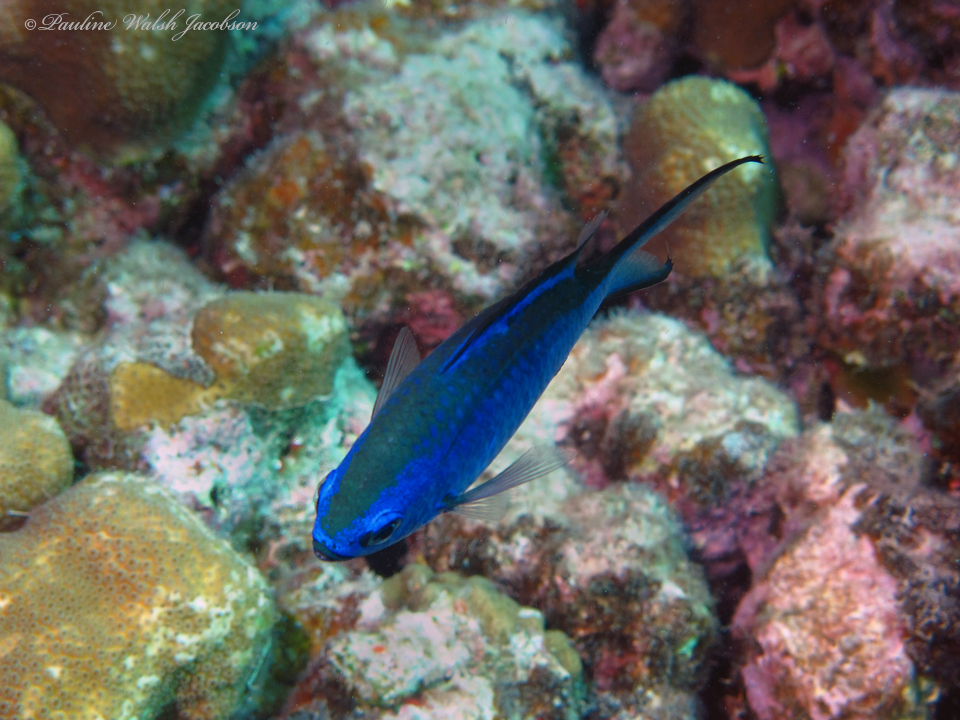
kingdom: Animalia
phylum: Chordata
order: Perciformes
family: Pomacentridae
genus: Chromis
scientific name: Chromis cyanea
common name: Blue chromis
